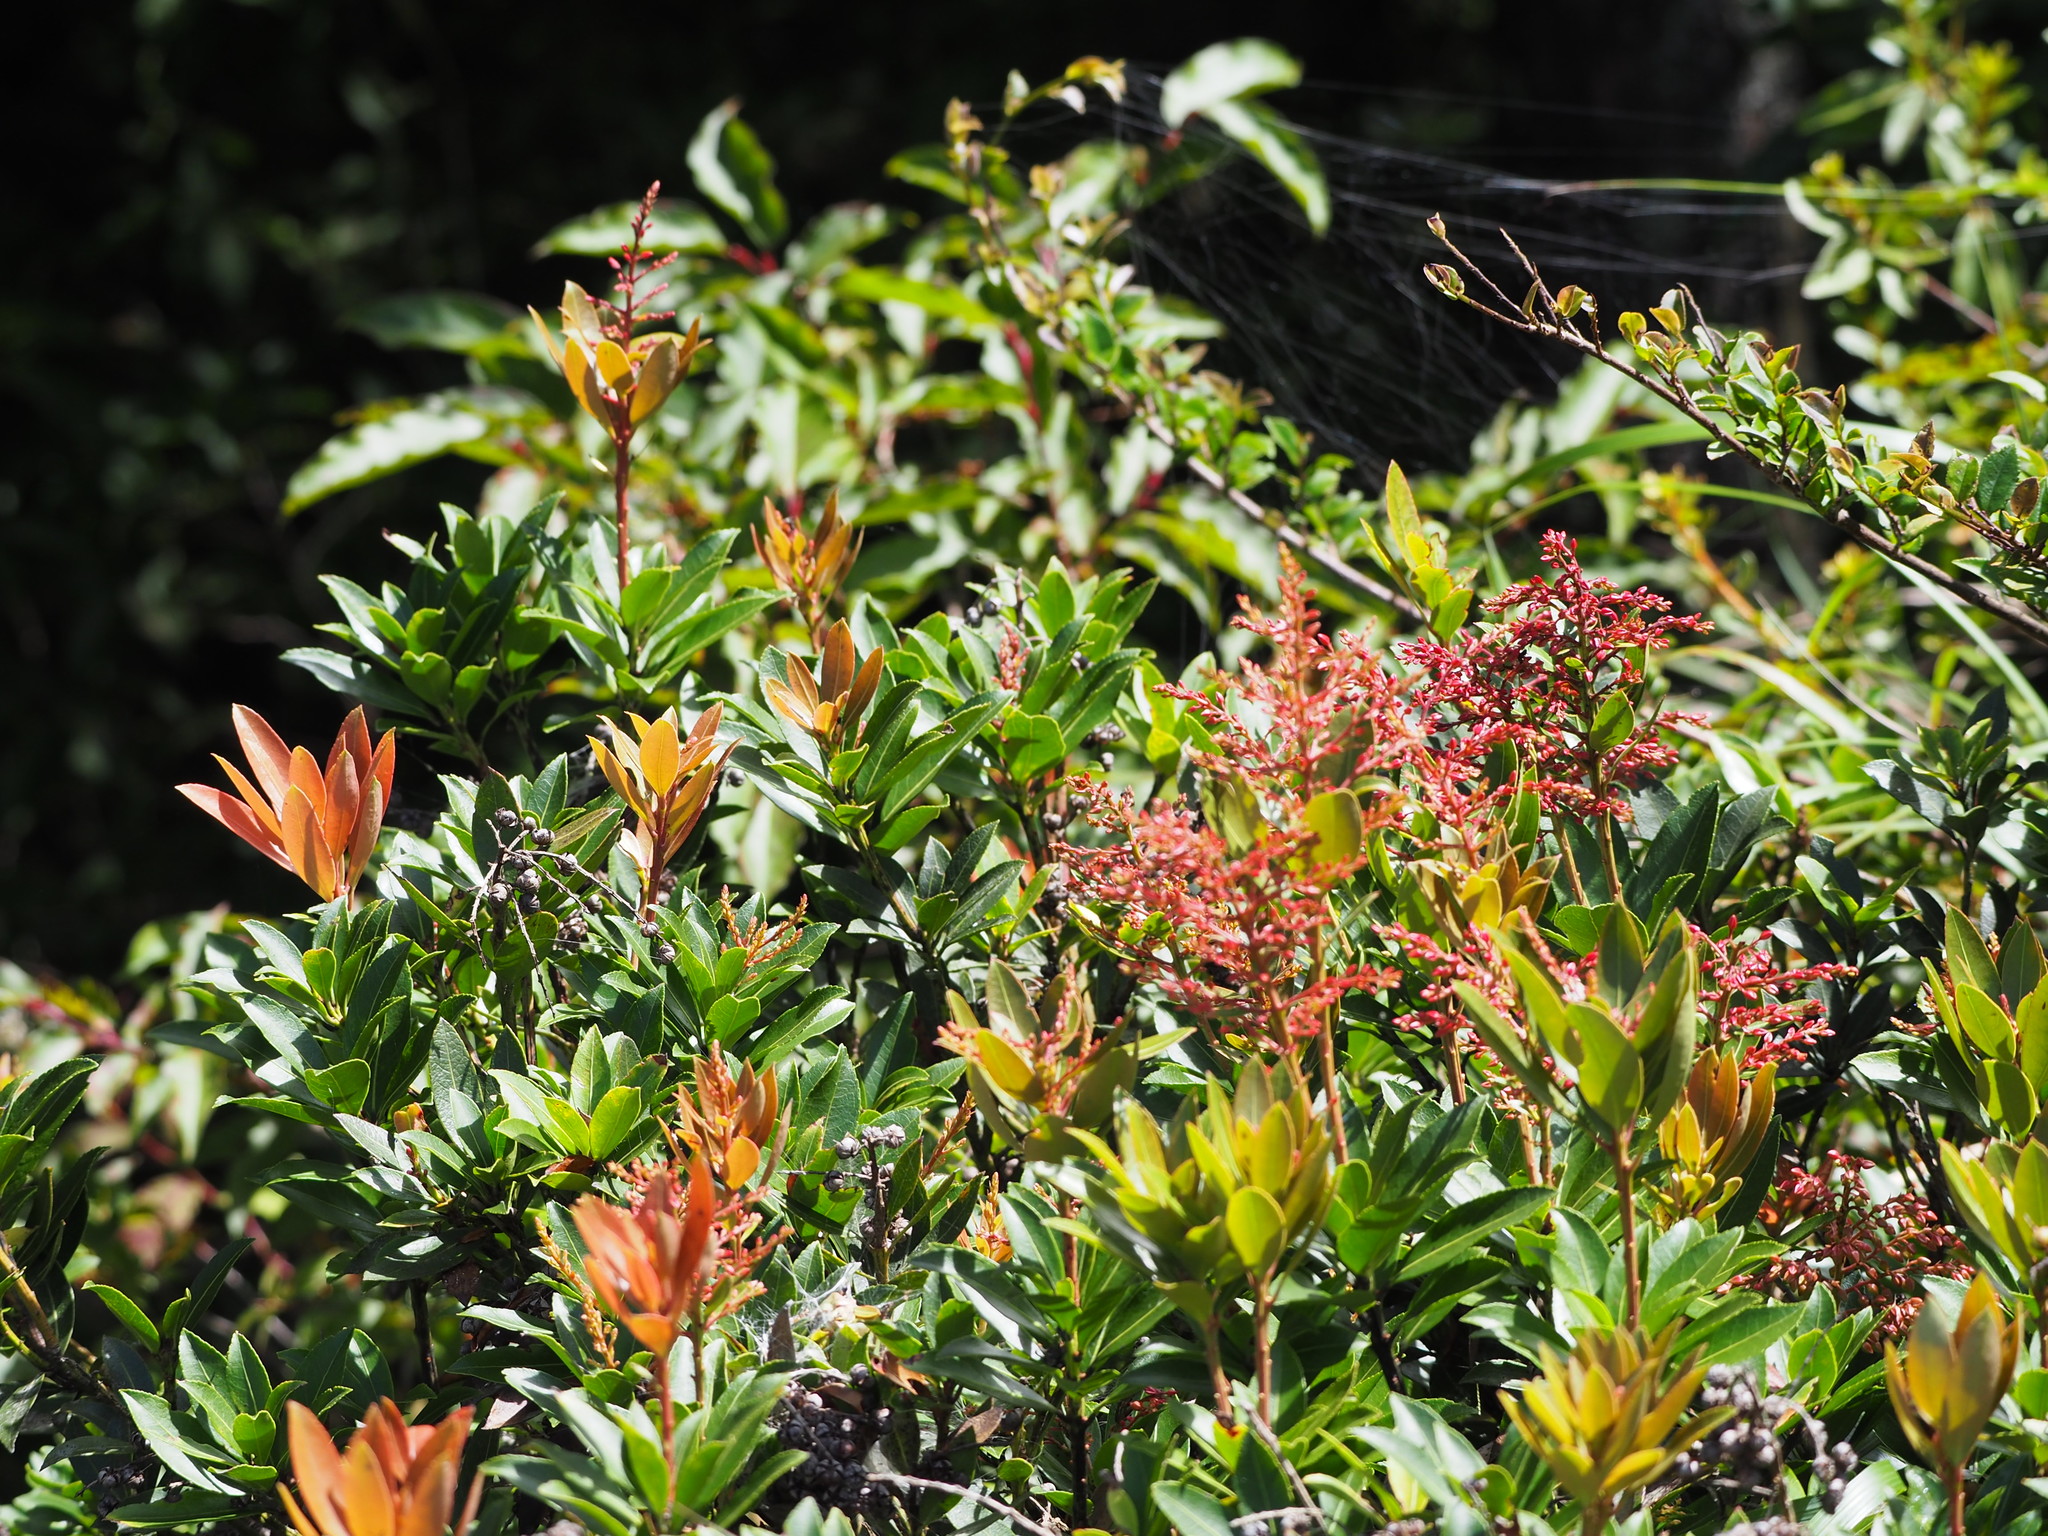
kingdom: Plantae
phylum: Tracheophyta
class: Magnoliopsida
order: Ericales
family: Ericaceae
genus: Pieris
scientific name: Pieris japonica
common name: Japanese pieris
